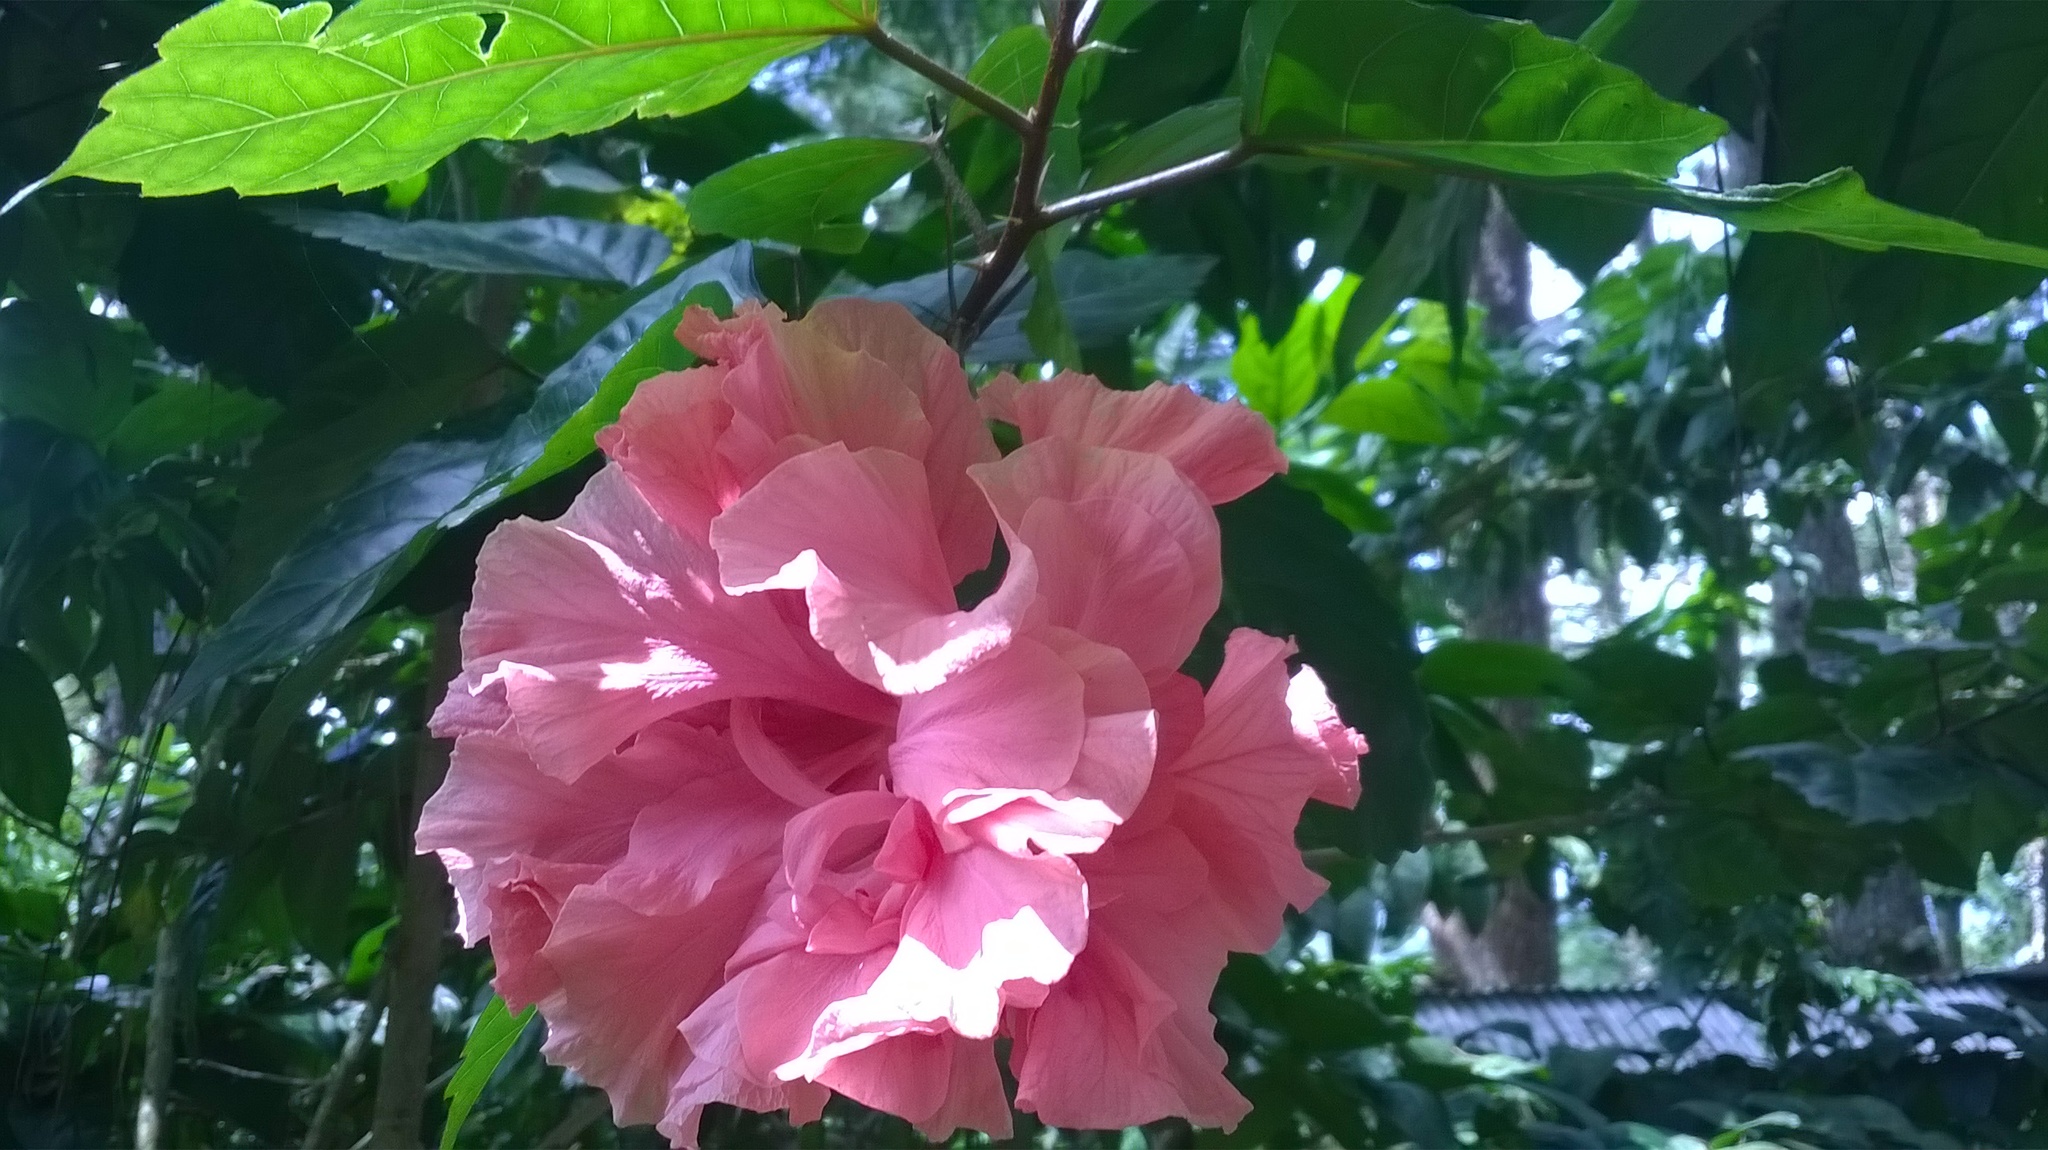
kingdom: Plantae
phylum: Tracheophyta
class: Magnoliopsida
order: Malvales
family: Malvaceae
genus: Hibiscus
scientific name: Hibiscus rosa-sinensis
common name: Hibiscus
